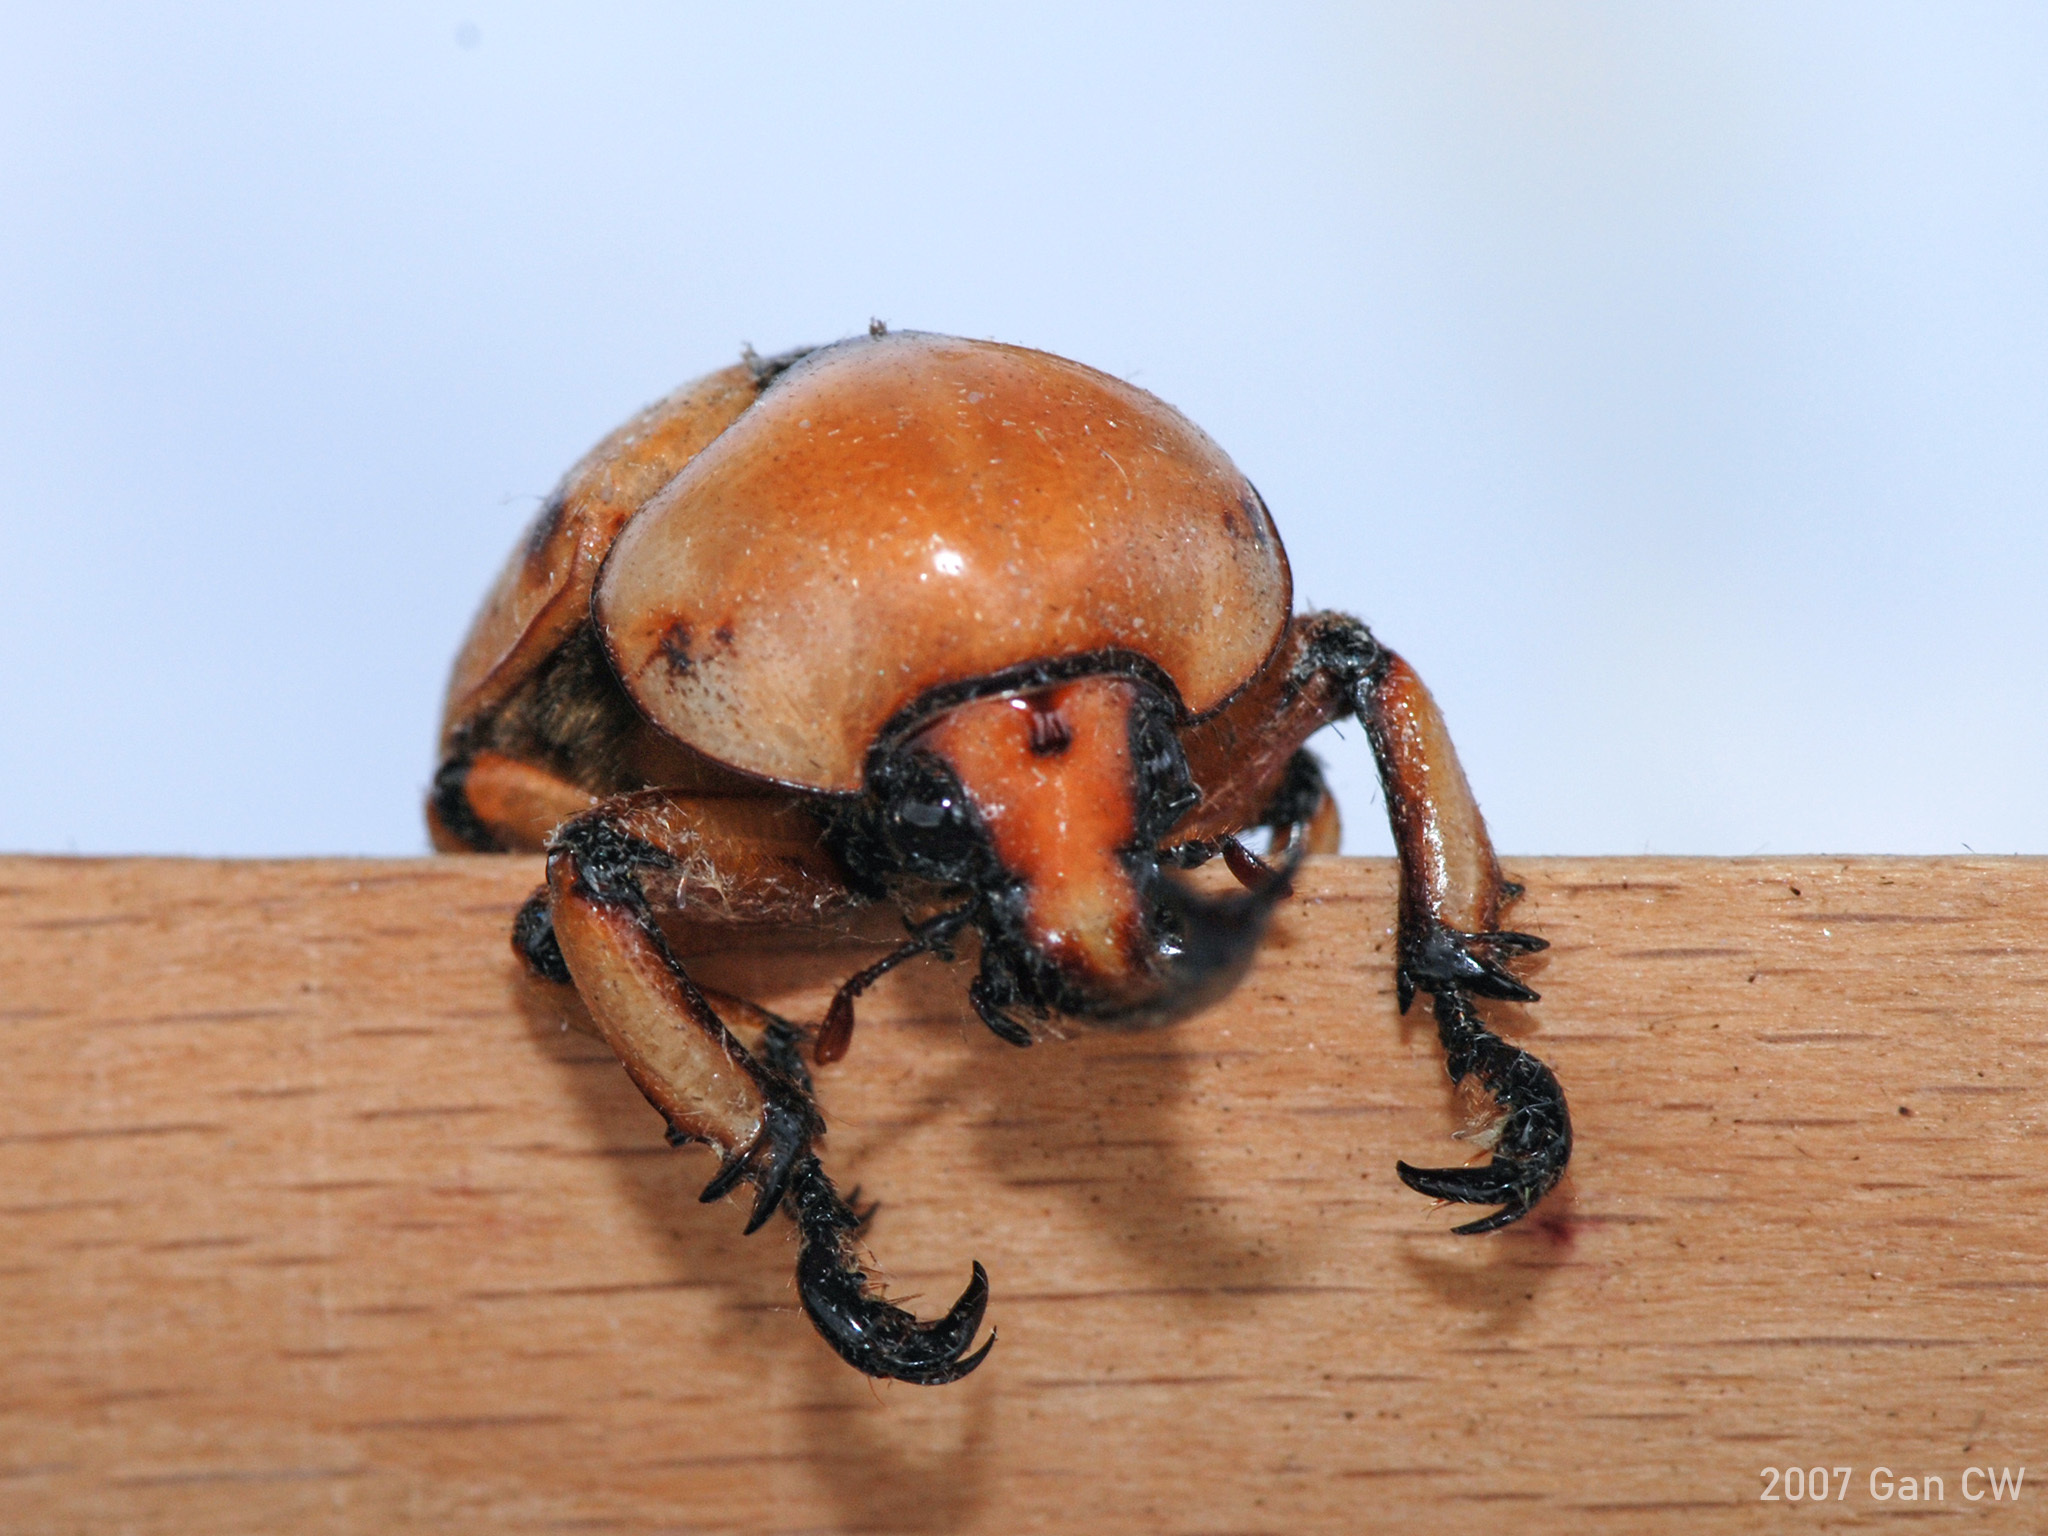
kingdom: Animalia
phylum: Arthropoda
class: Insecta
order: Coleoptera
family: Scarabaeidae
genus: Ceroplophana
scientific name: Ceroplophana malaysiana
